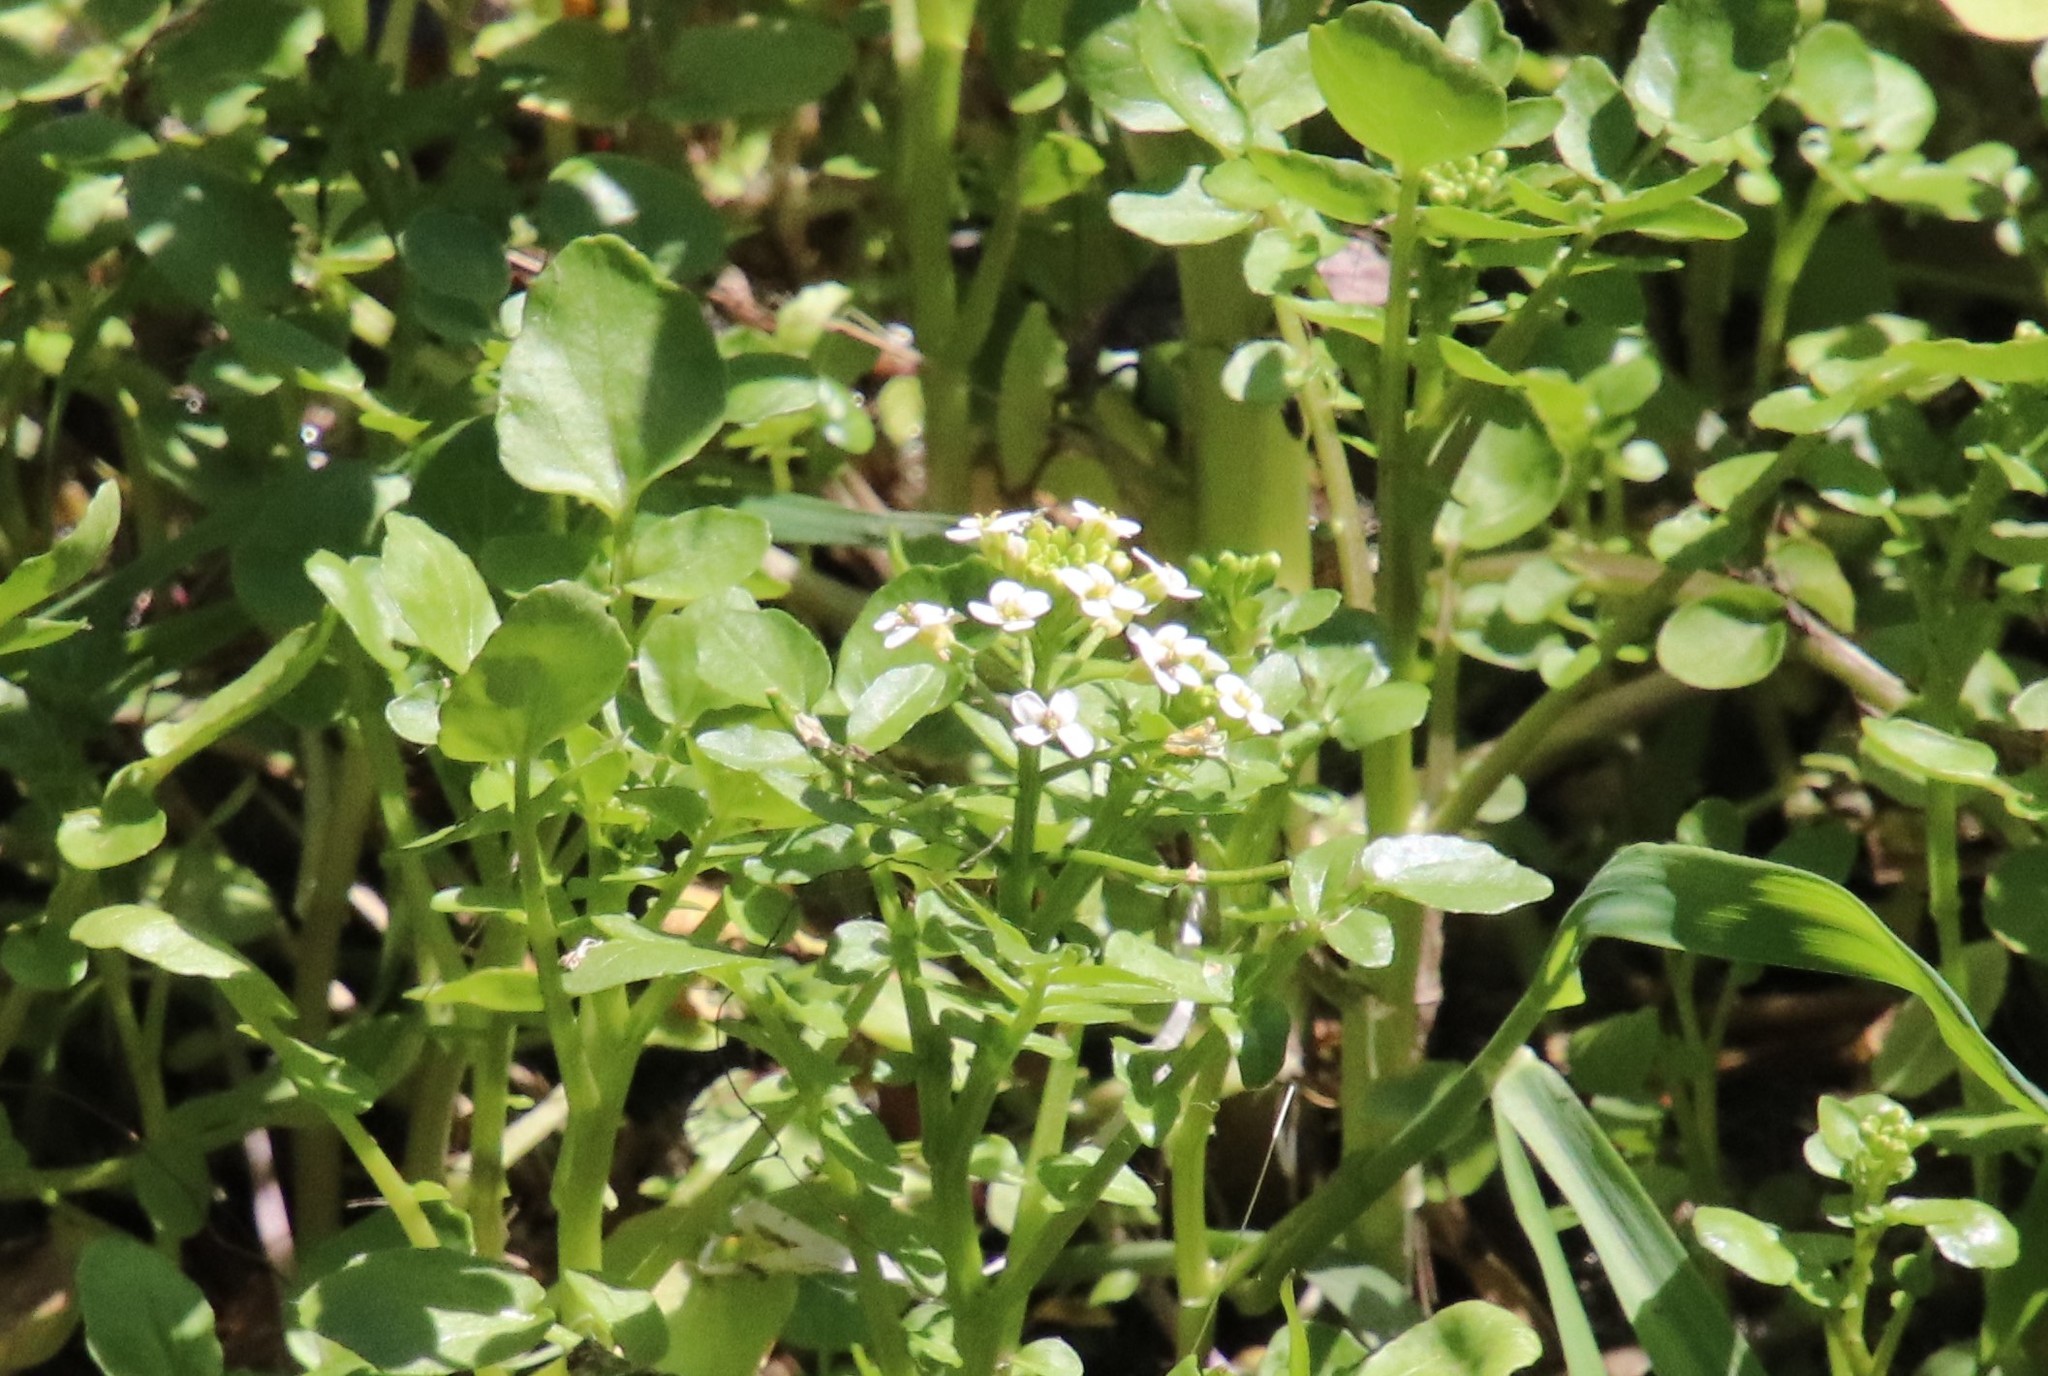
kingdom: Plantae
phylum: Tracheophyta
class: Magnoliopsida
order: Brassicales
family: Brassicaceae
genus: Nasturtium
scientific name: Nasturtium officinale
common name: Watercress
